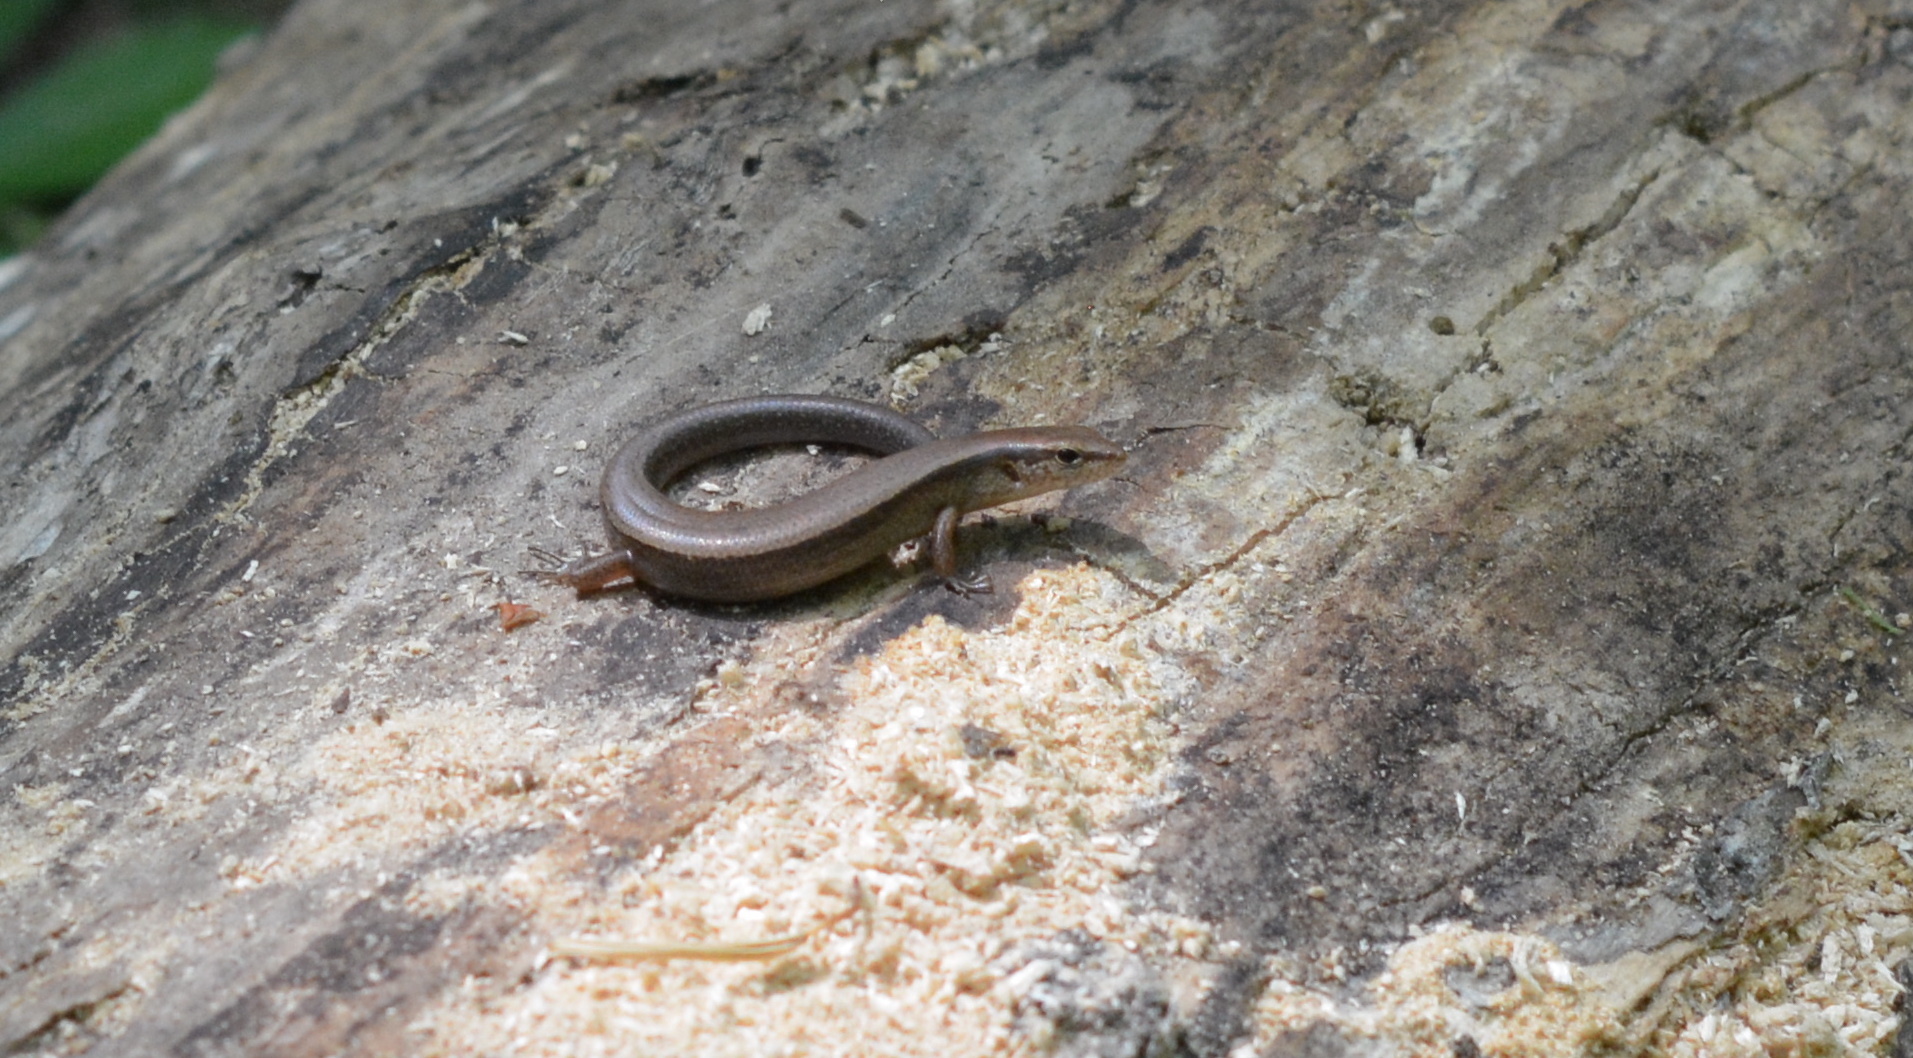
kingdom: Animalia
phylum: Chordata
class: Squamata
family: Scincidae
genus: Scincella
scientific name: Scincella lateralis
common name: Ground skink
